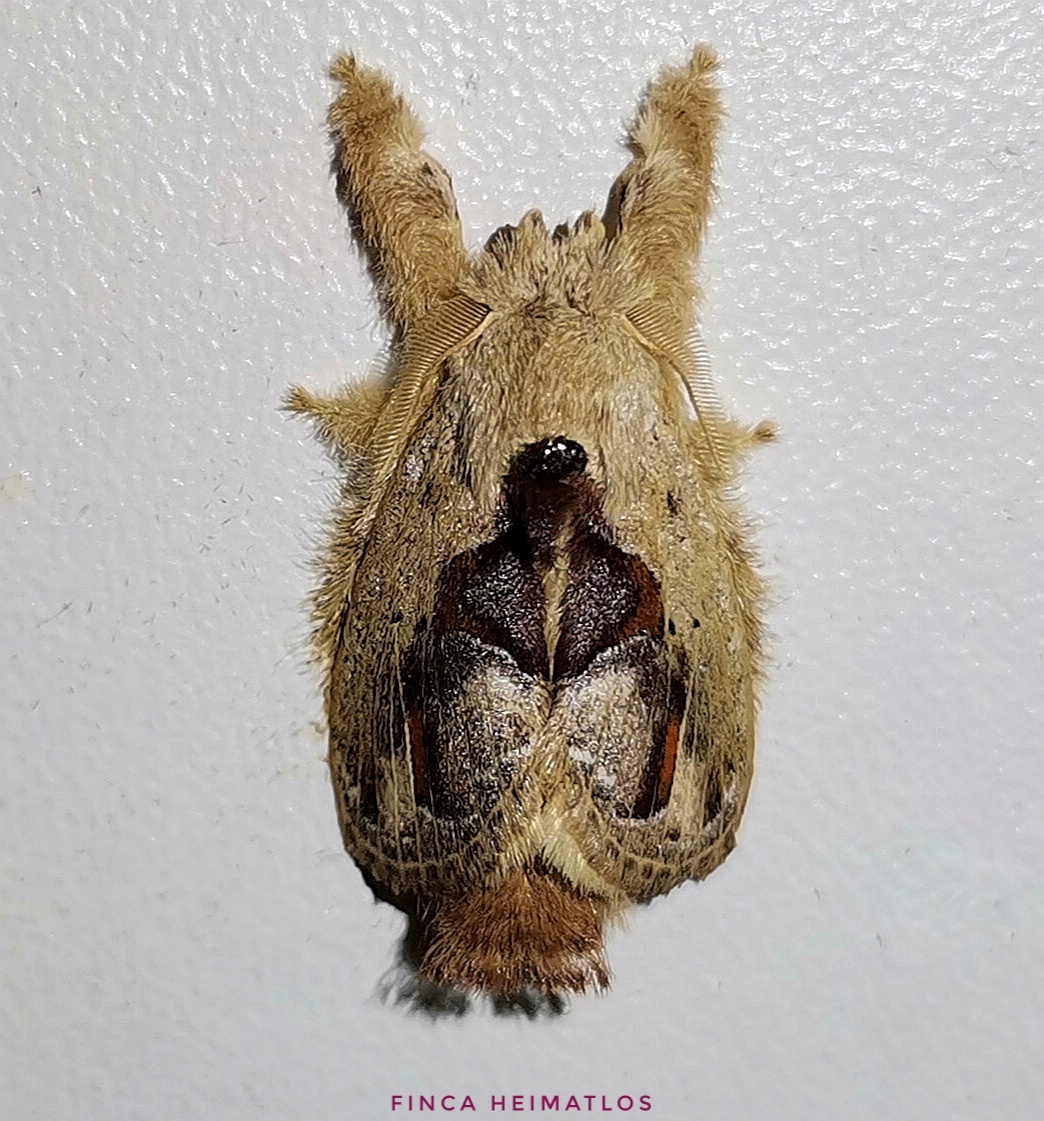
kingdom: Animalia
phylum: Arthropoda
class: Insecta
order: Lepidoptera
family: Lasiocampidae
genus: Nesara
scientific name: Nesara
